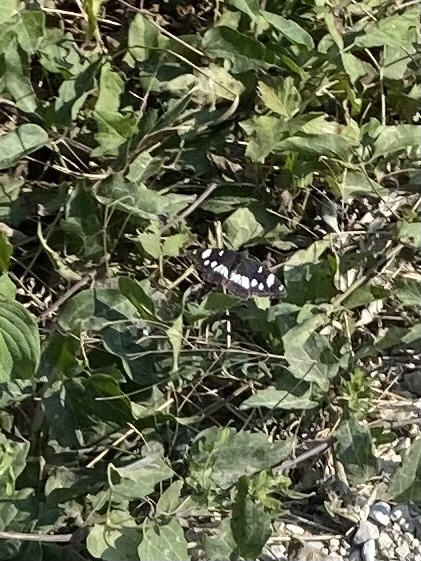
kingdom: Animalia
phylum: Arthropoda
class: Insecta
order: Lepidoptera
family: Nymphalidae
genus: Limenitis
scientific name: Limenitis reducta
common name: Southern white admiral
